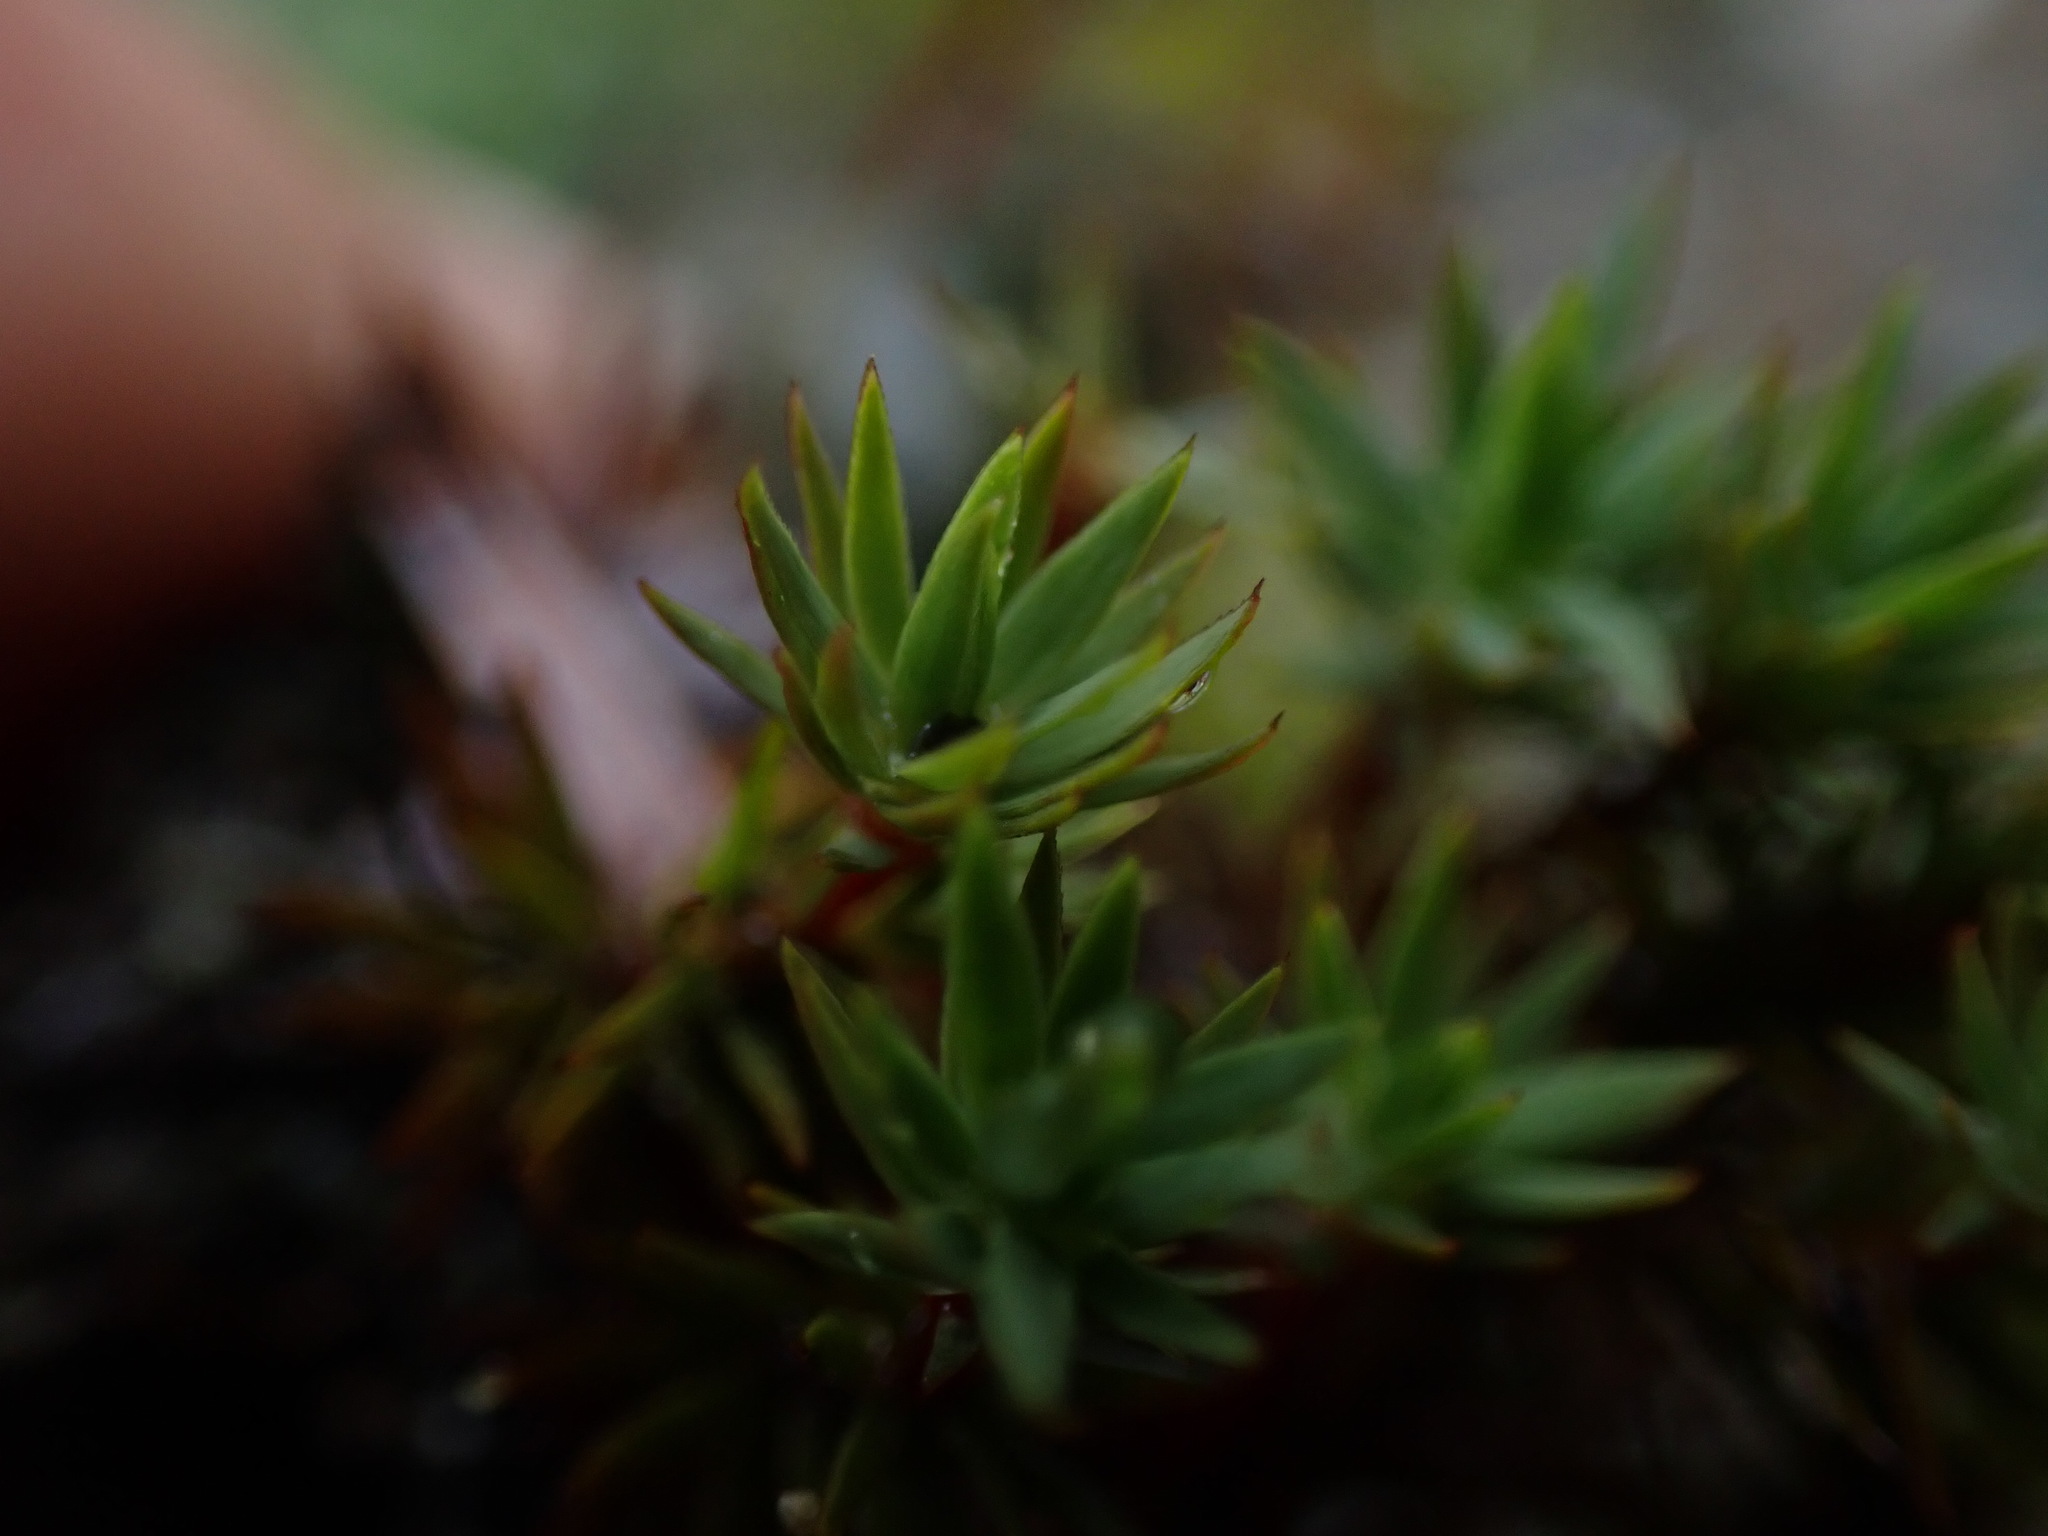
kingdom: Plantae
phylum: Bryophyta
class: Polytrichopsida
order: Polytrichales
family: Polytrichaceae
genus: Pogonatum
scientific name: Pogonatum urnigerum
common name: Urn hair moss
